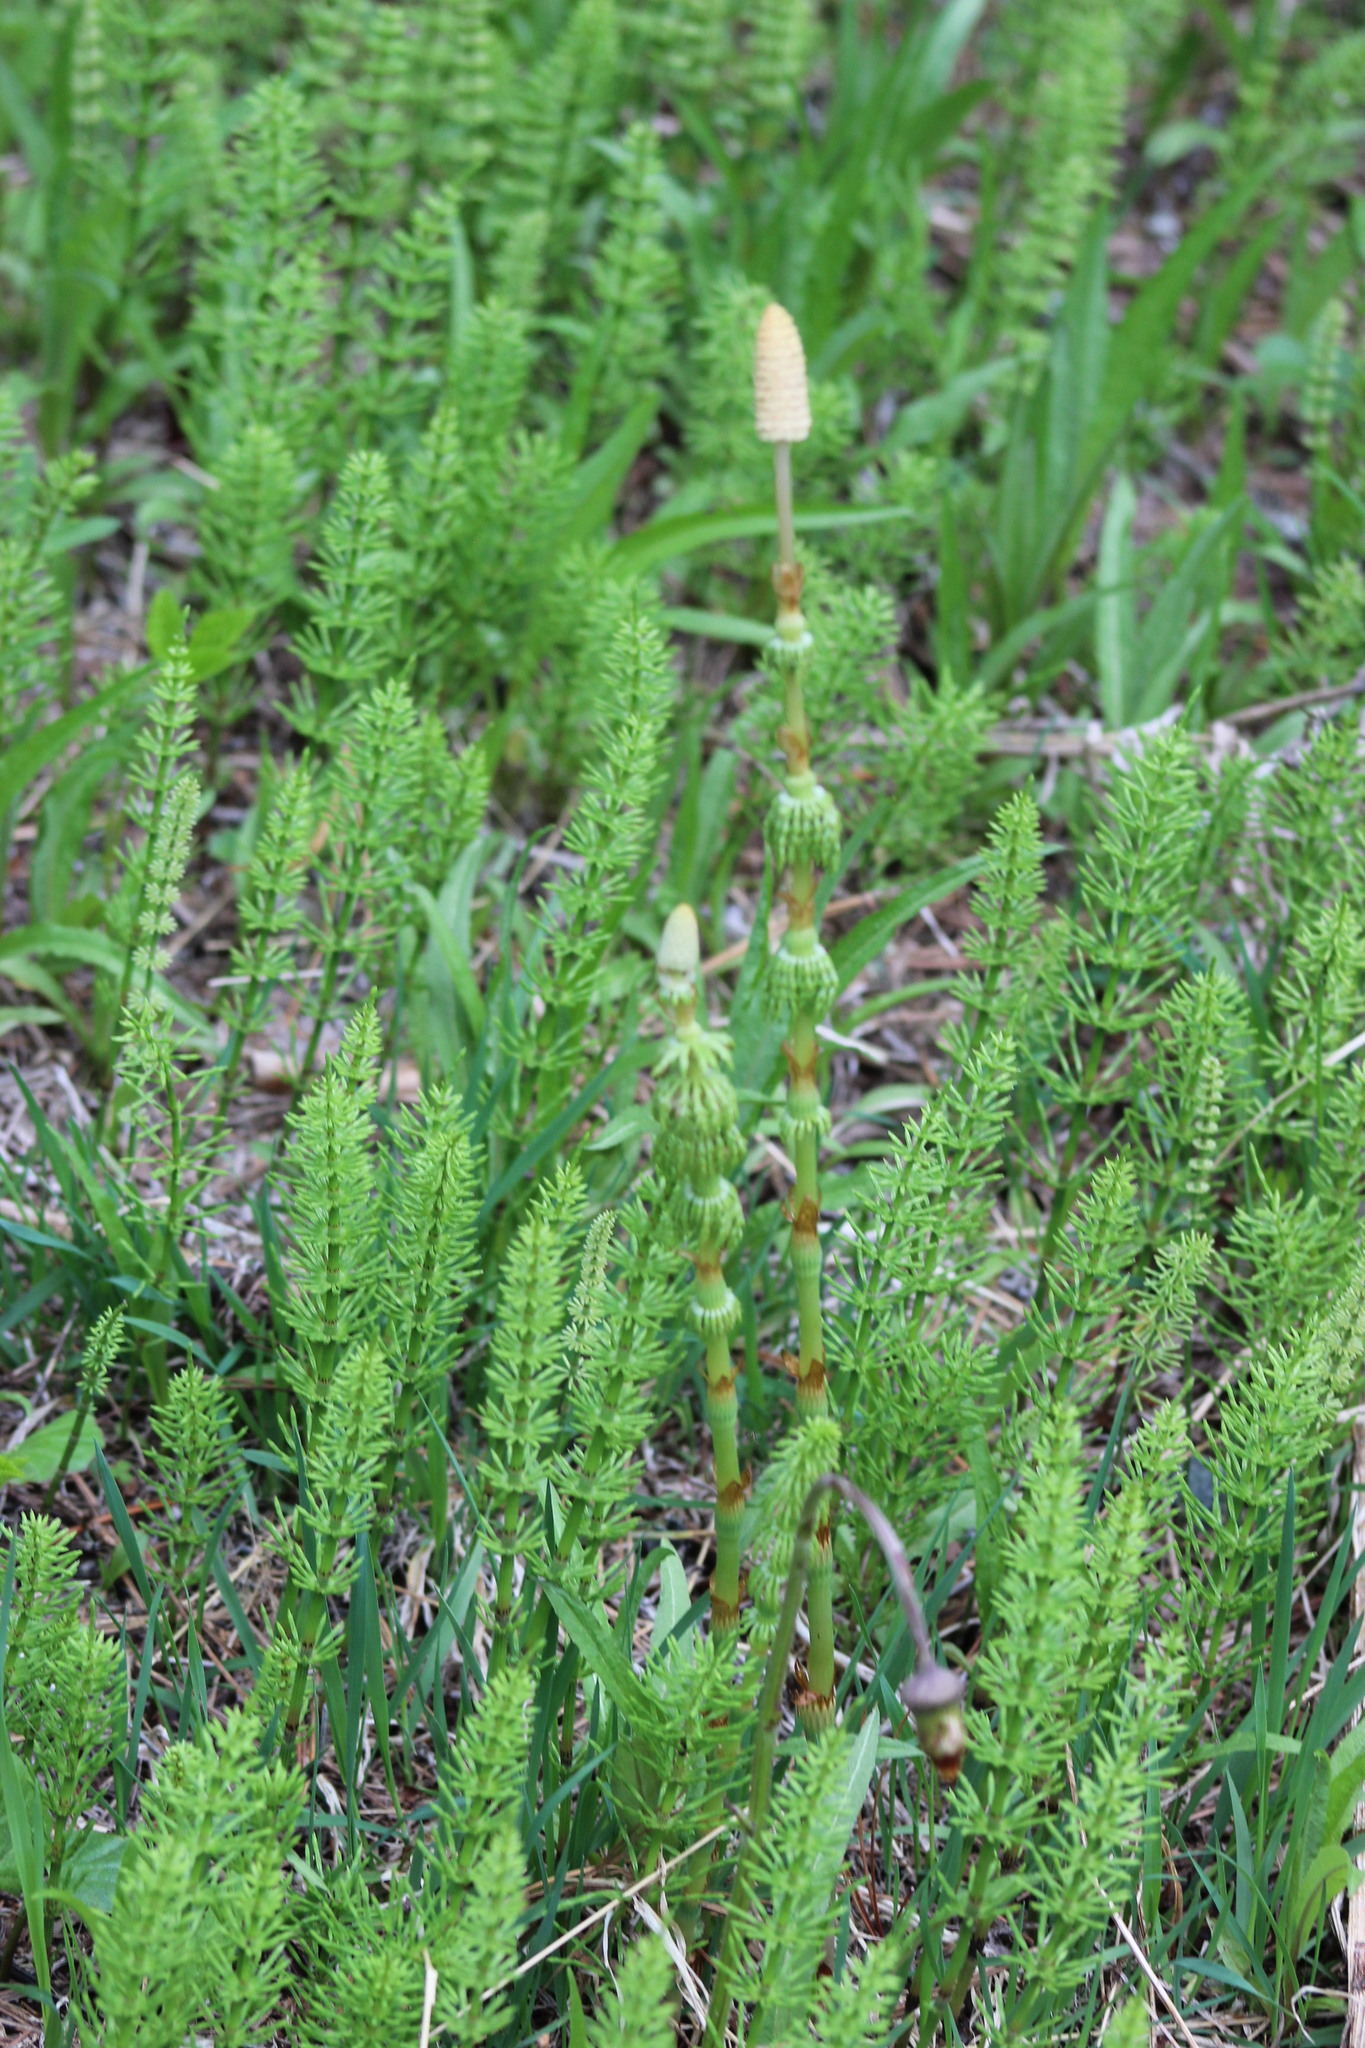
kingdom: Plantae
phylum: Tracheophyta
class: Polypodiopsida
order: Equisetales
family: Equisetaceae
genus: Equisetum
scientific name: Equisetum sylvaticum
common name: Wood horsetail
